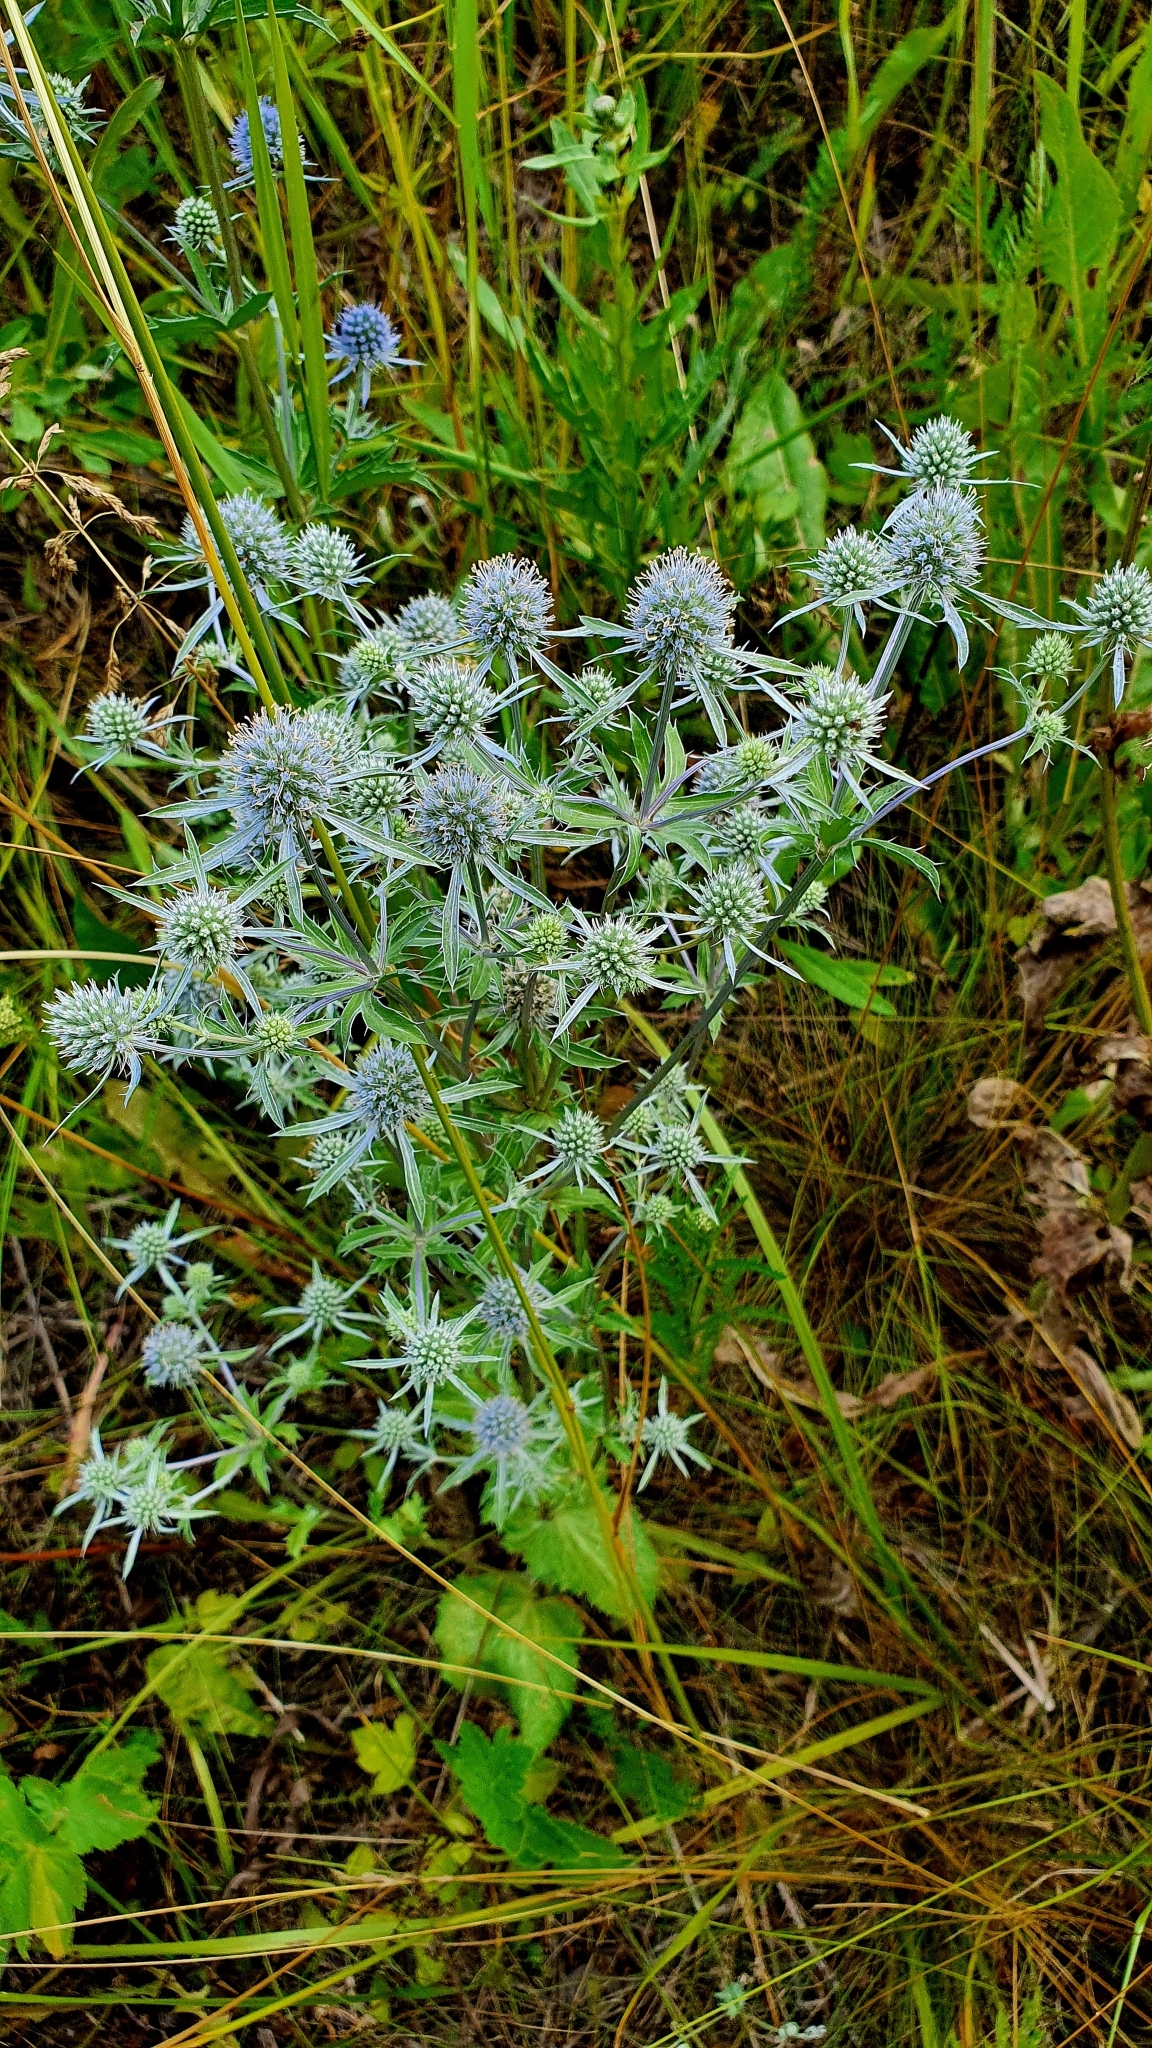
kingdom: Plantae
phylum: Tracheophyta
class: Magnoliopsida
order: Apiales
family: Apiaceae
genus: Eryngium
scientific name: Eryngium planum
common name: Blue eryngo
